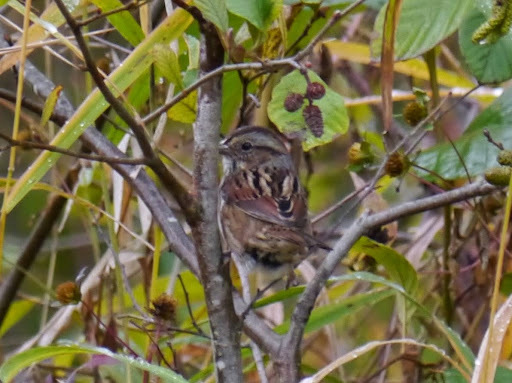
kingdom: Animalia
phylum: Chordata
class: Aves
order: Passeriformes
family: Passerellidae
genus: Melospiza
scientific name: Melospiza georgiana
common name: Swamp sparrow
